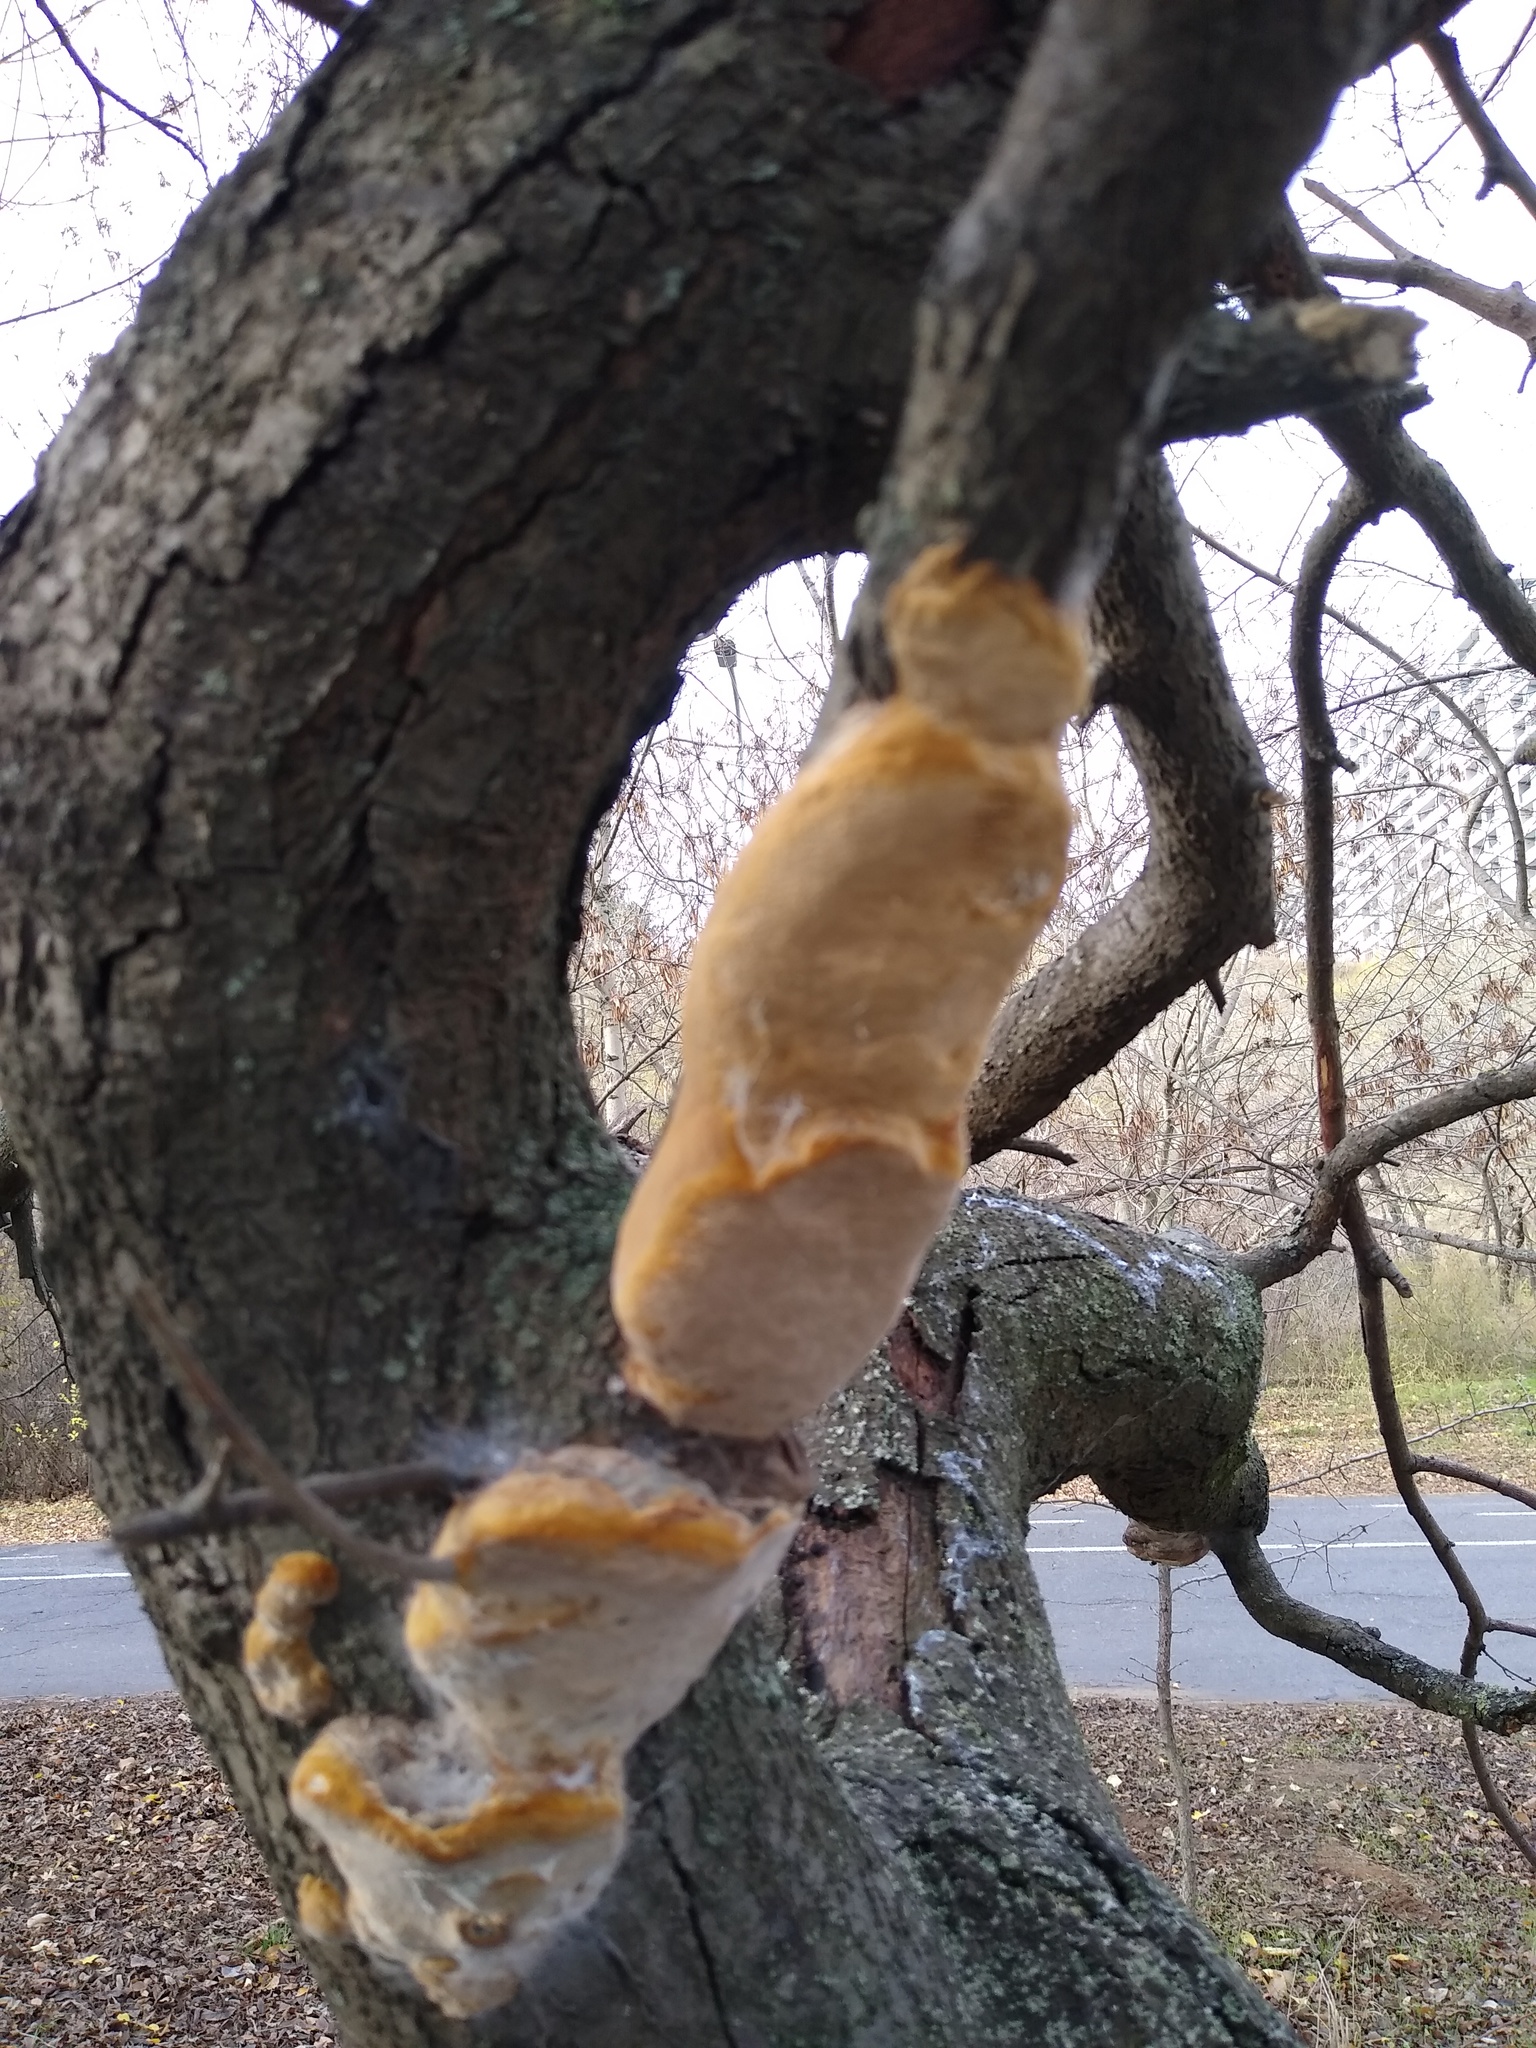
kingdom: Fungi
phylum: Basidiomycota
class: Agaricomycetes
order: Hymenochaetales
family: Hymenochaetaceae
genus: Phellinus
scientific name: Phellinus pomaceus
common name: Cushion bracket
